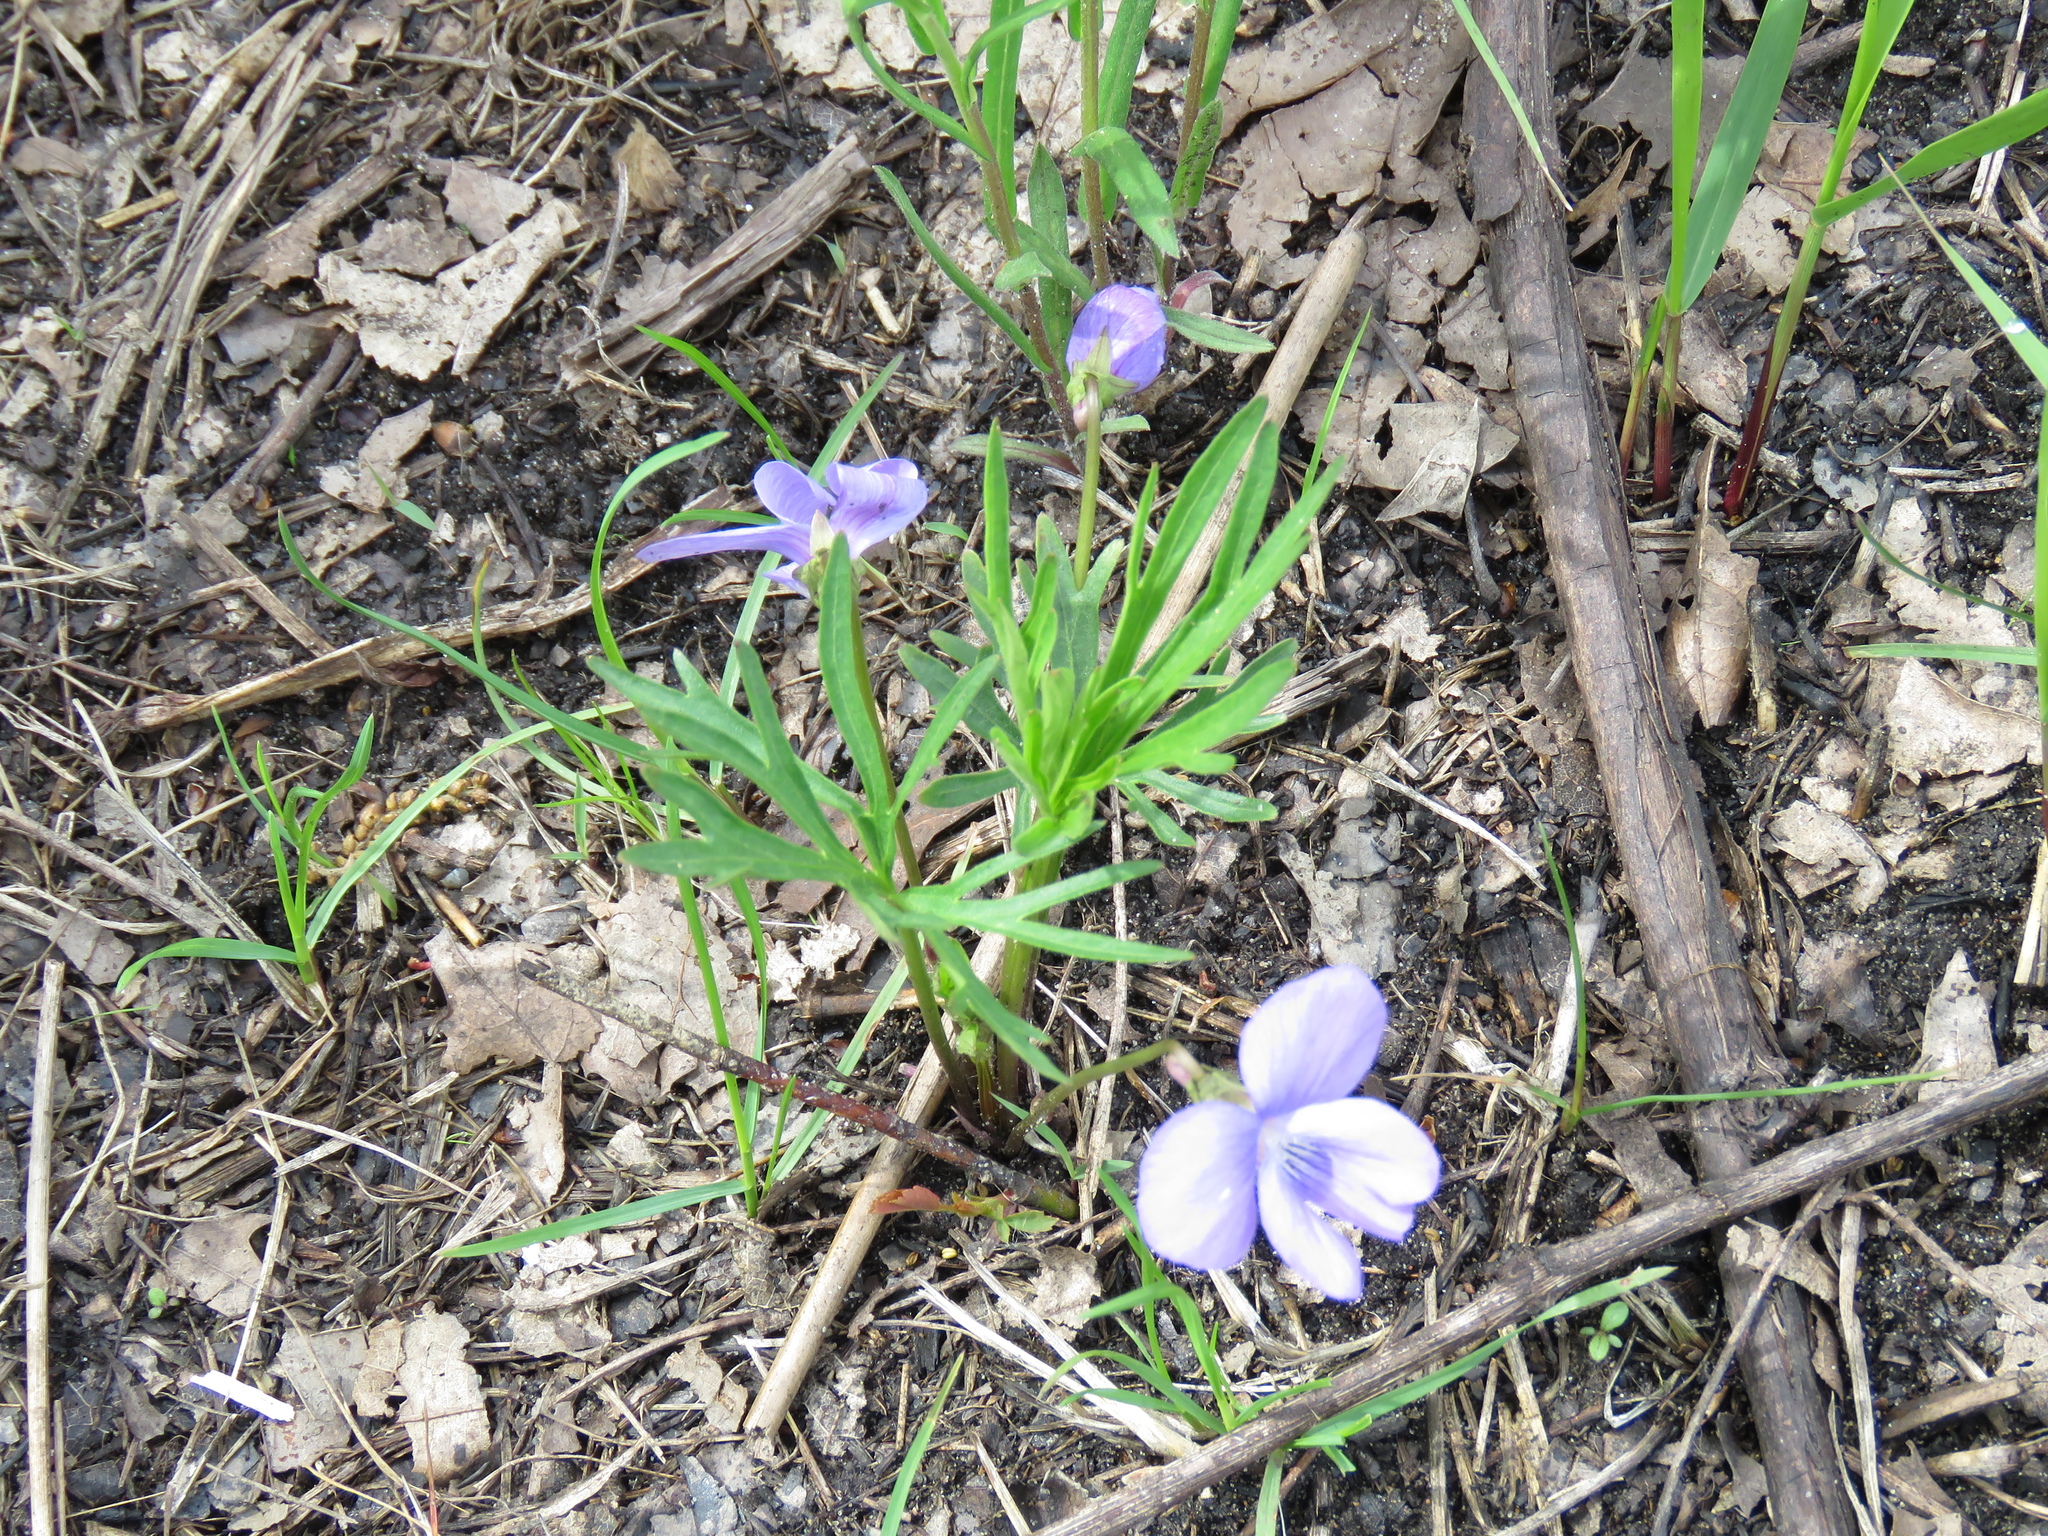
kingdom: Plantae
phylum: Tracheophyta
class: Magnoliopsida
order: Malpighiales
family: Violaceae
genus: Viola
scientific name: Viola pedatifida
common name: Prairie violet
